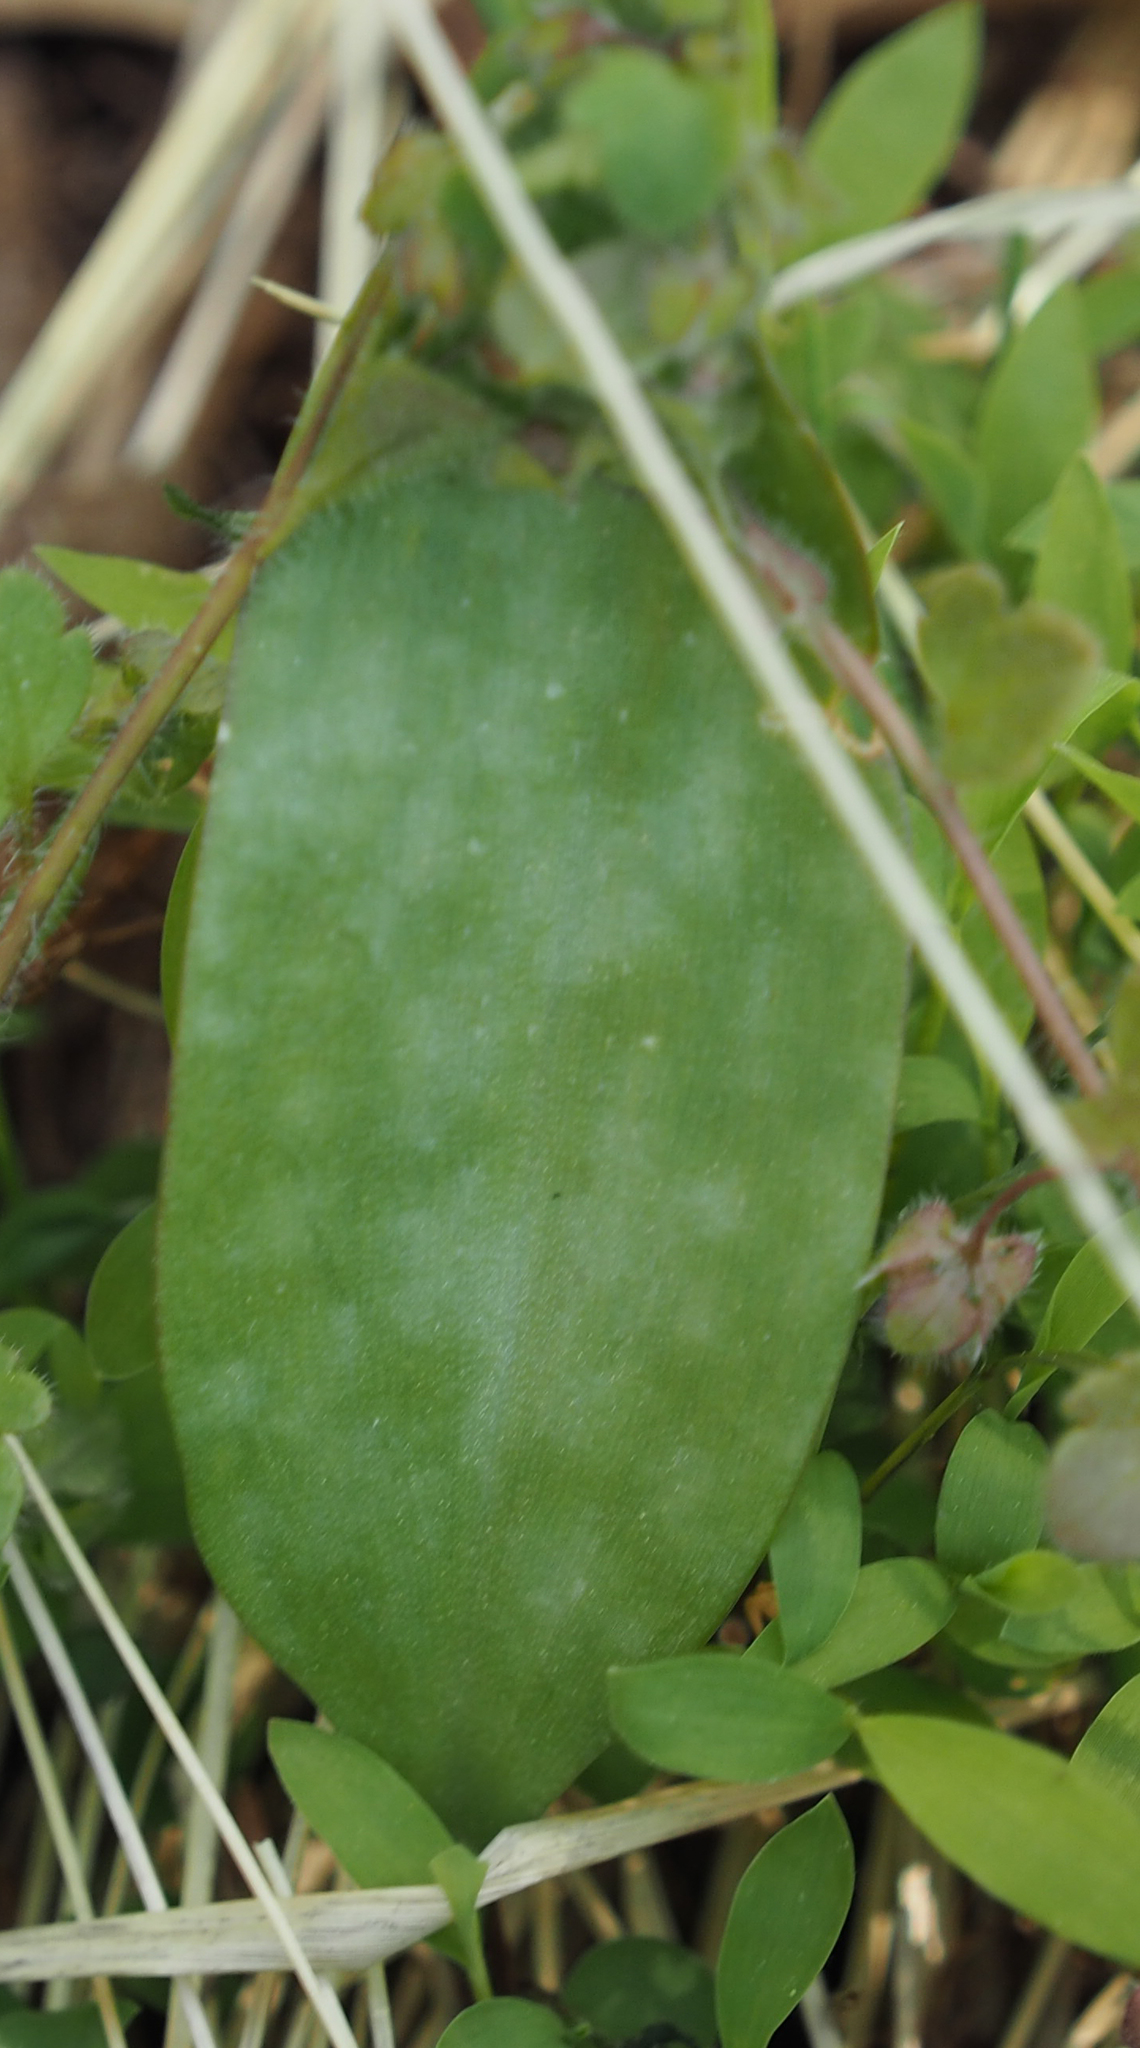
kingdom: Plantae
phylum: Tracheophyta
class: Liliopsida
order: Liliales
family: Liliaceae
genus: Erythronium
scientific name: Erythronium americanum
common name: Yellow adder's-tongue
